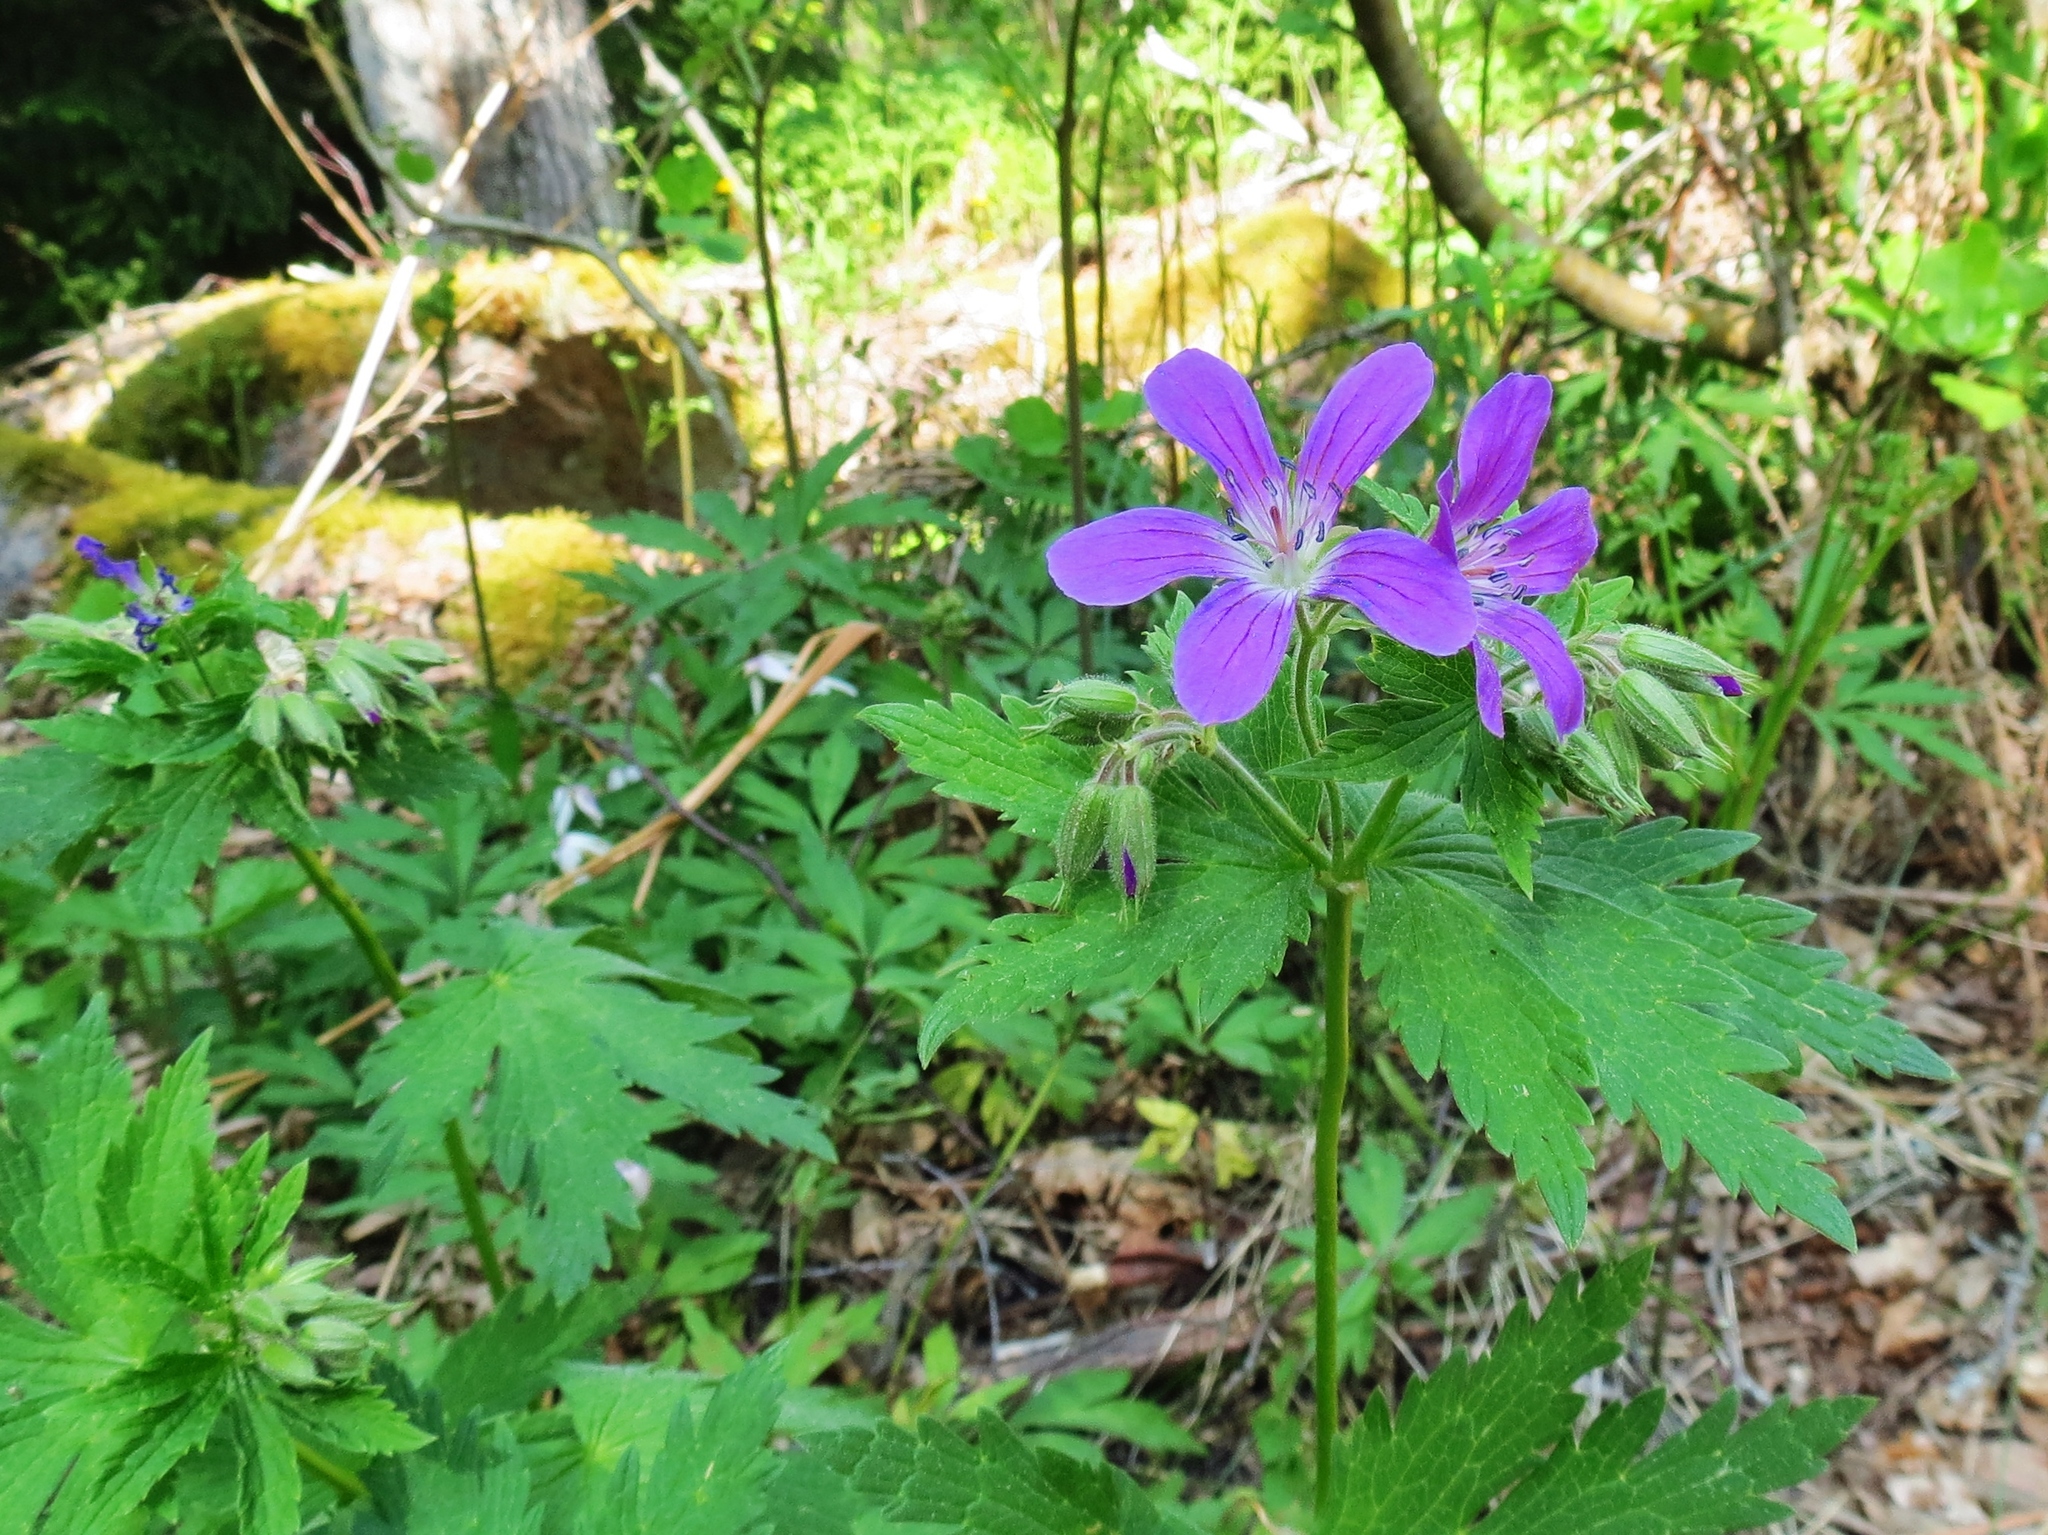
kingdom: Plantae
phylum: Tracheophyta
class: Magnoliopsida
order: Geraniales
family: Geraniaceae
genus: Geranium
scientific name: Geranium sylvaticum
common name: Wood crane's-bill
